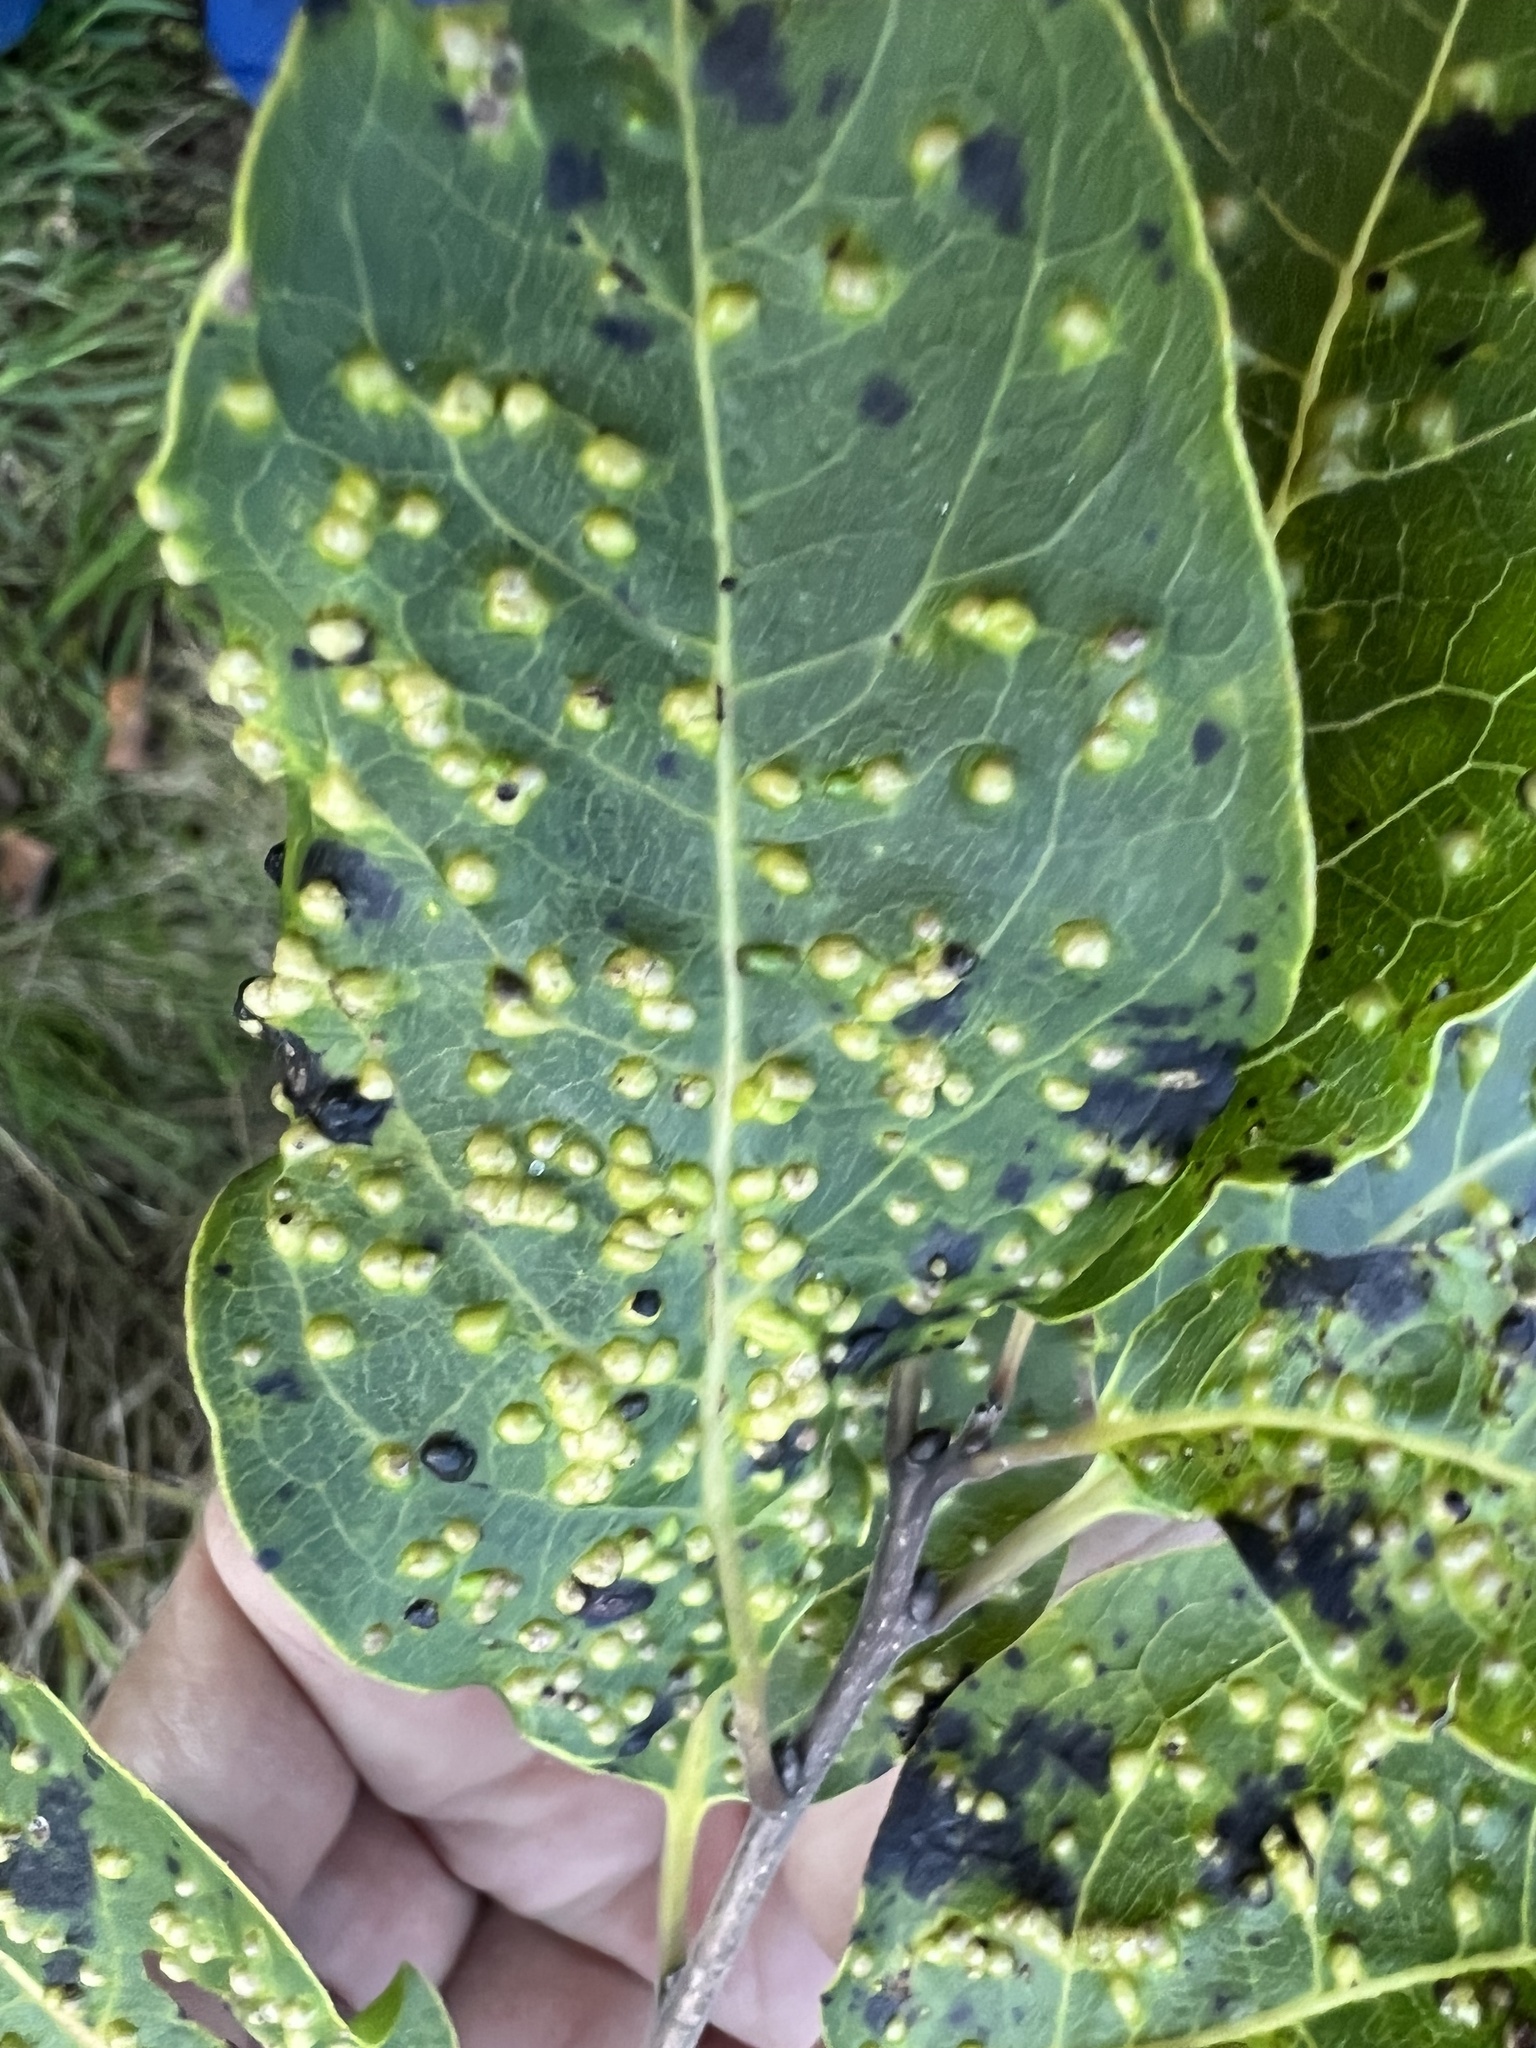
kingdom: Animalia
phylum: Arthropoda
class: Arachnida
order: Trombidiformes
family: Eriophyidae
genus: Aceria
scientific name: Aceria
